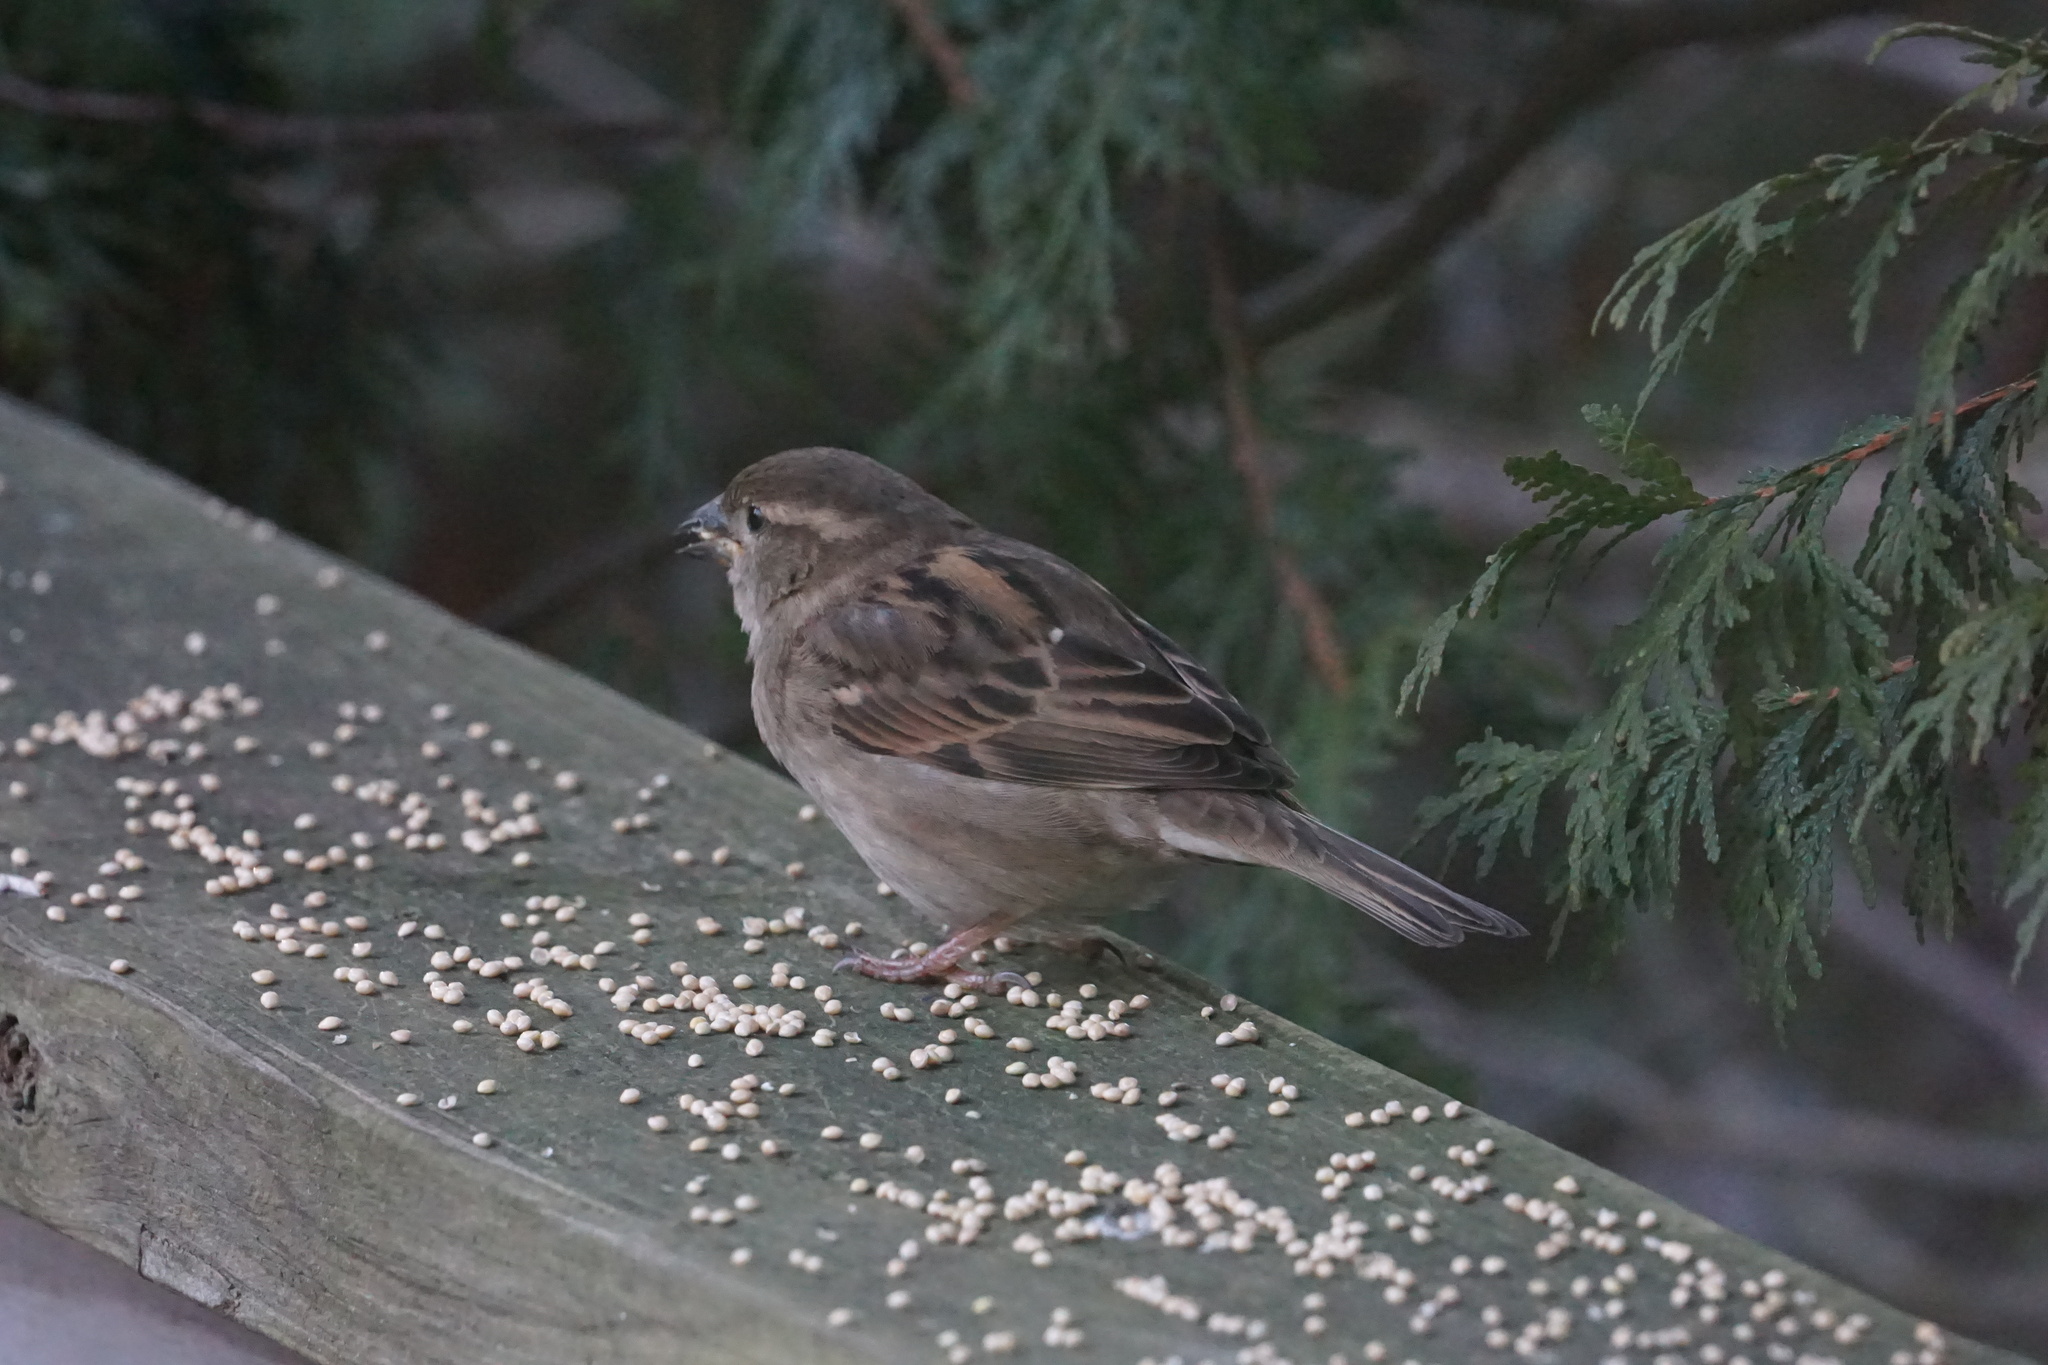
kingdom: Animalia
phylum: Chordata
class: Aves
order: Passeriformes
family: Passeridae
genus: Passer
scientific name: Passer domesticus
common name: House sparrow
